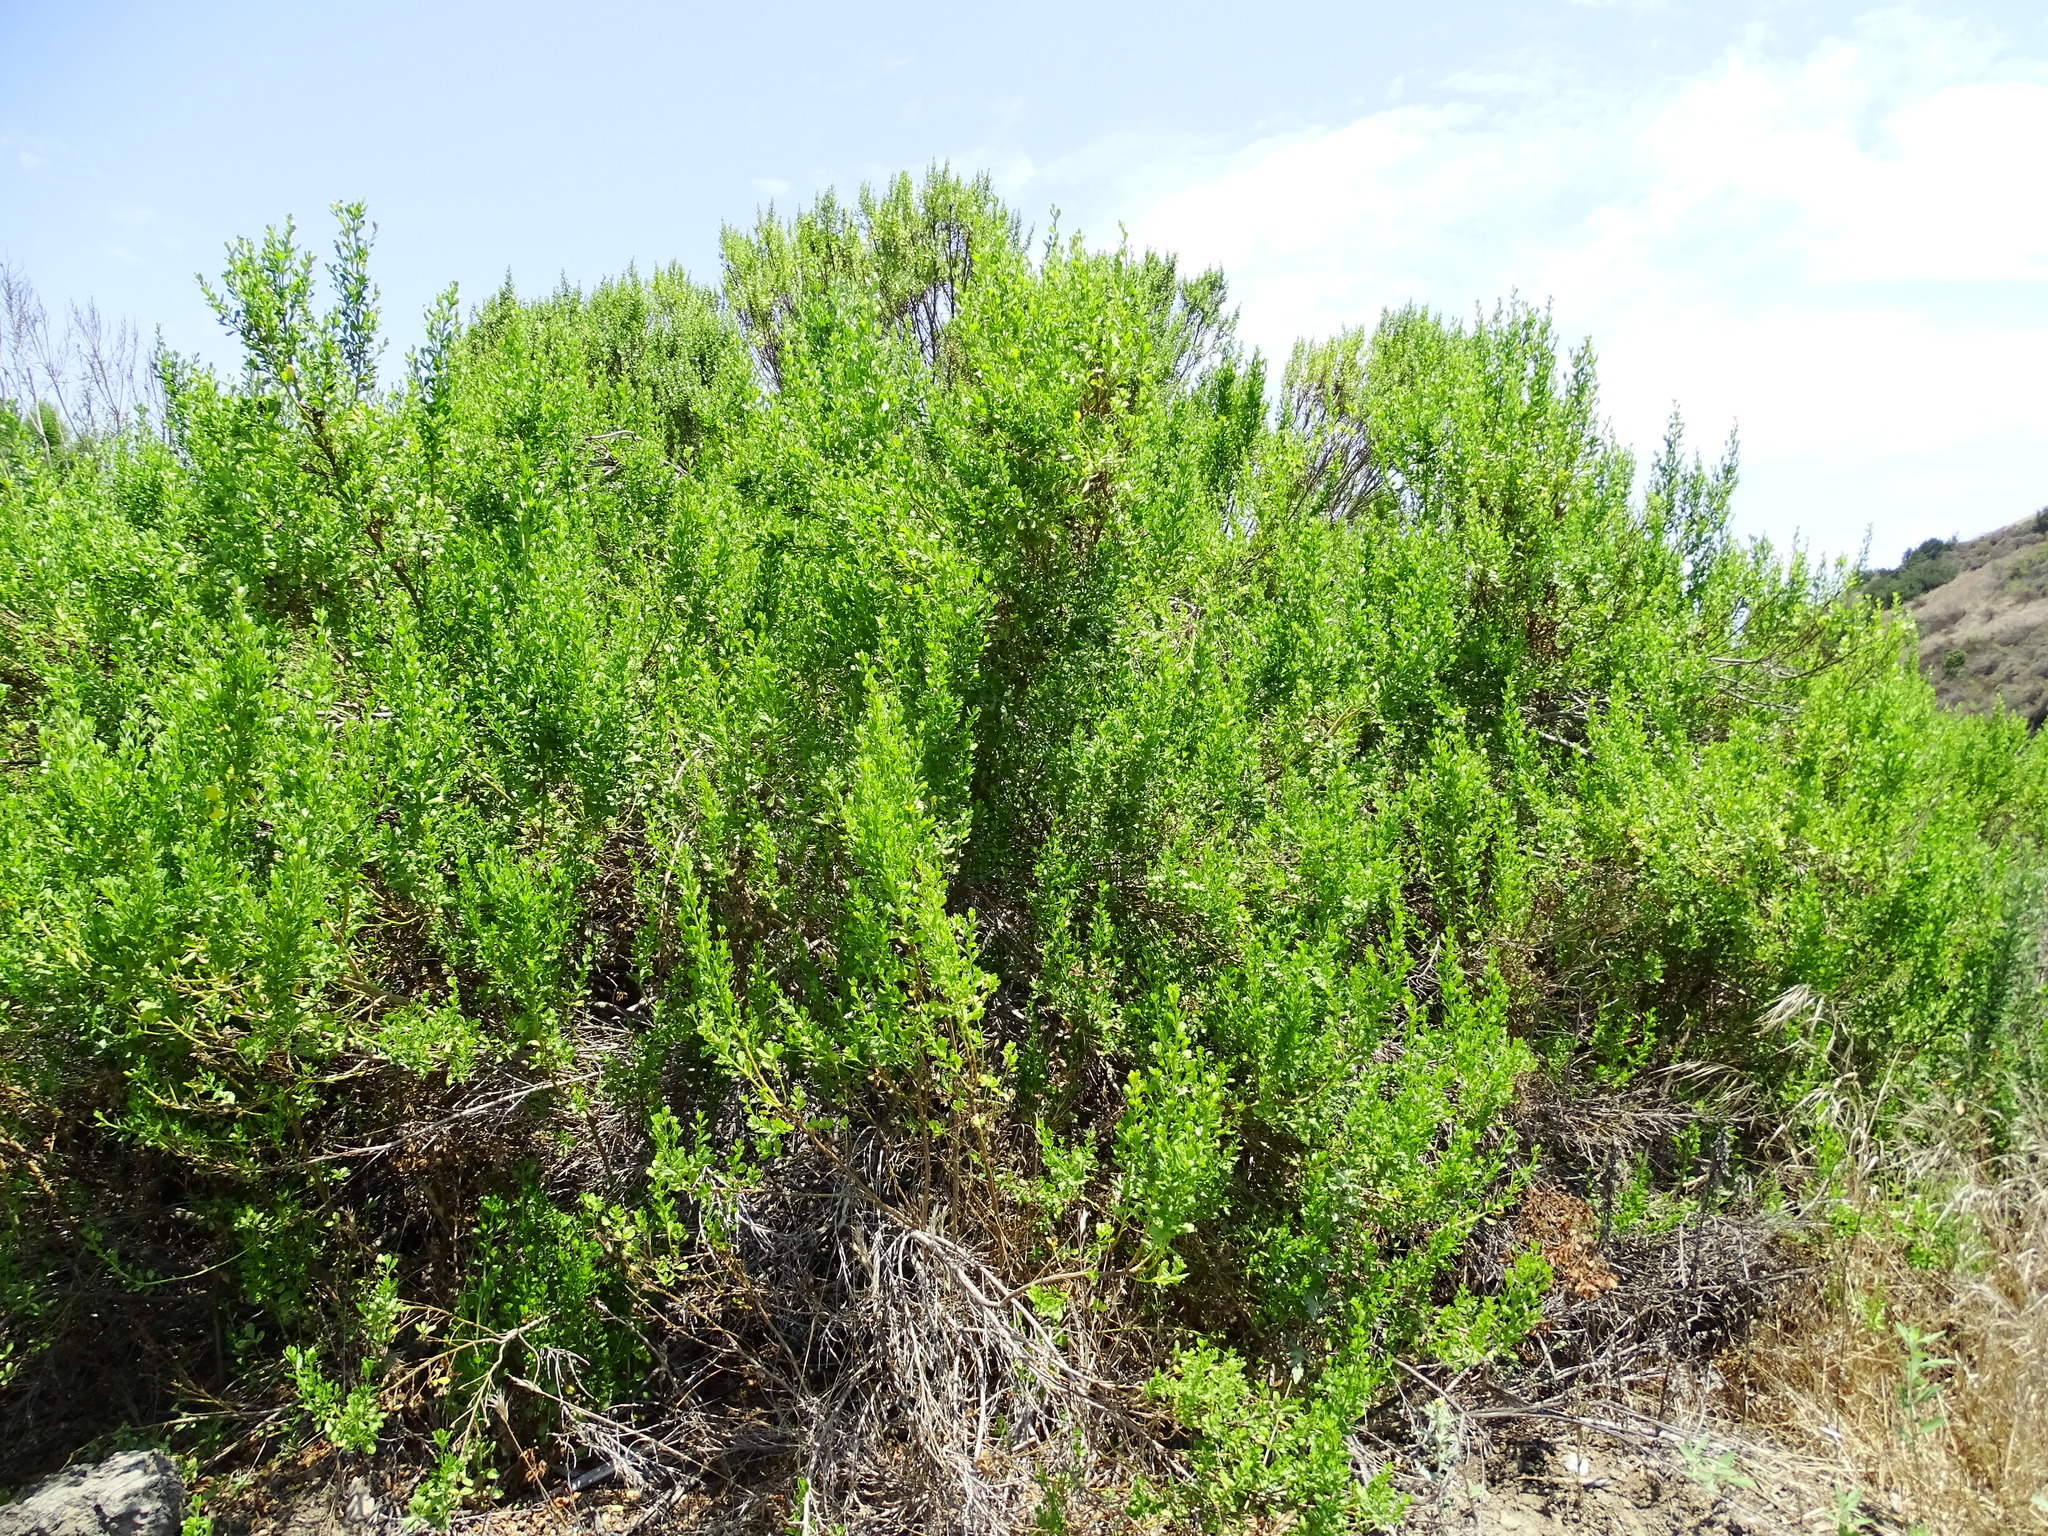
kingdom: Plantae
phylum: Tracheophyta
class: Magnoliopsida
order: Asterales
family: Asteraceae
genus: Baccharis
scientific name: Baccharis pilularis
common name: Coyotebrush
